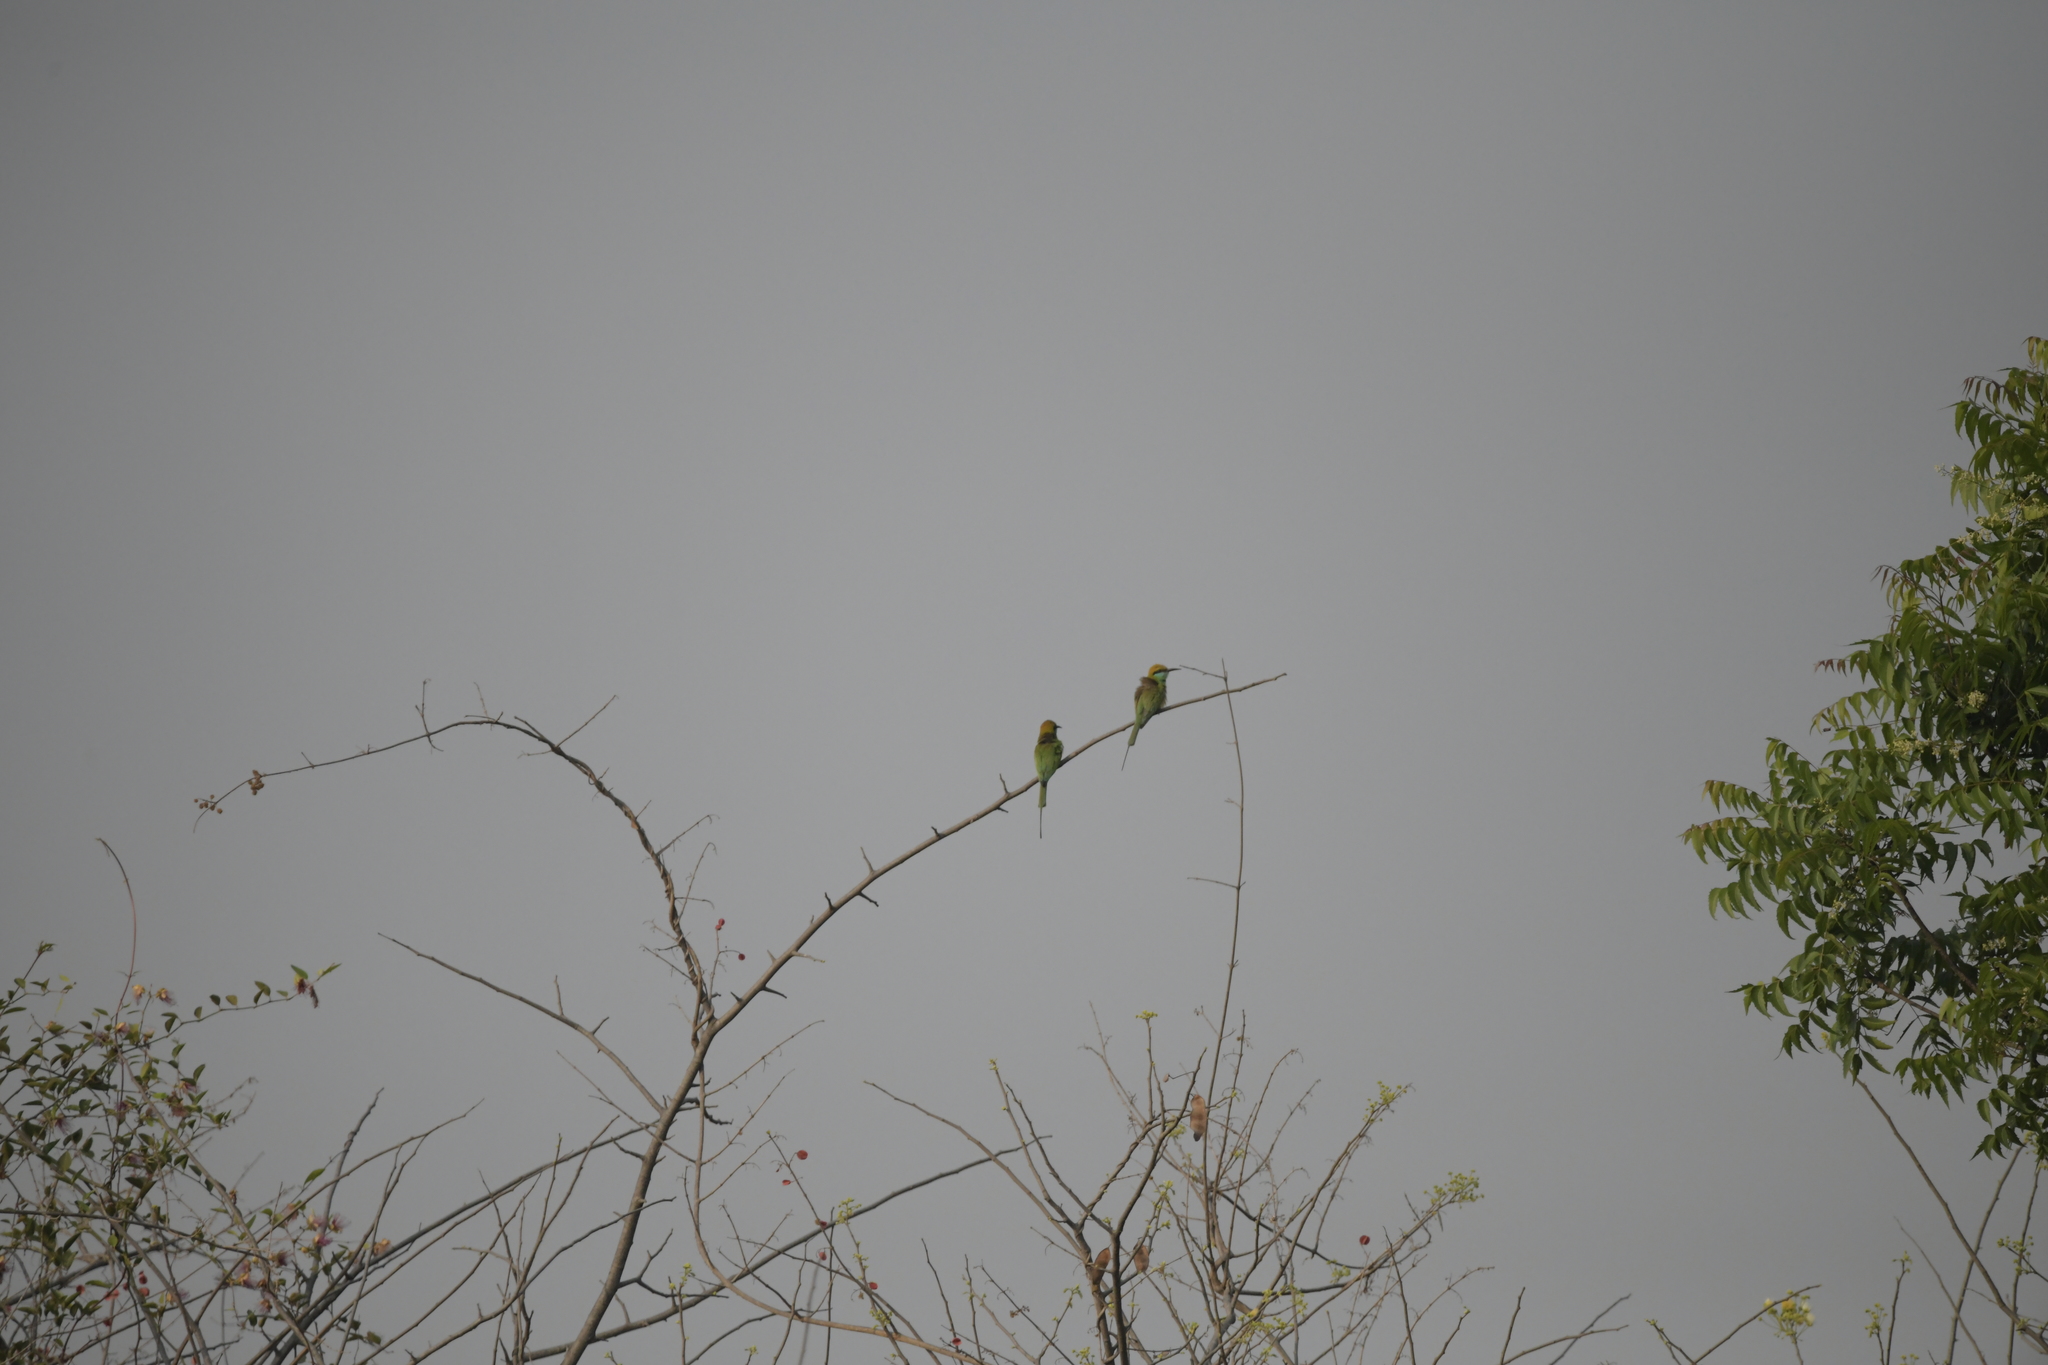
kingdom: Animalia
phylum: Chordata
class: Aves
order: Coraciiformes
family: Meropidae
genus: Merops
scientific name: Merops orientalis
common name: Green bee-eater
